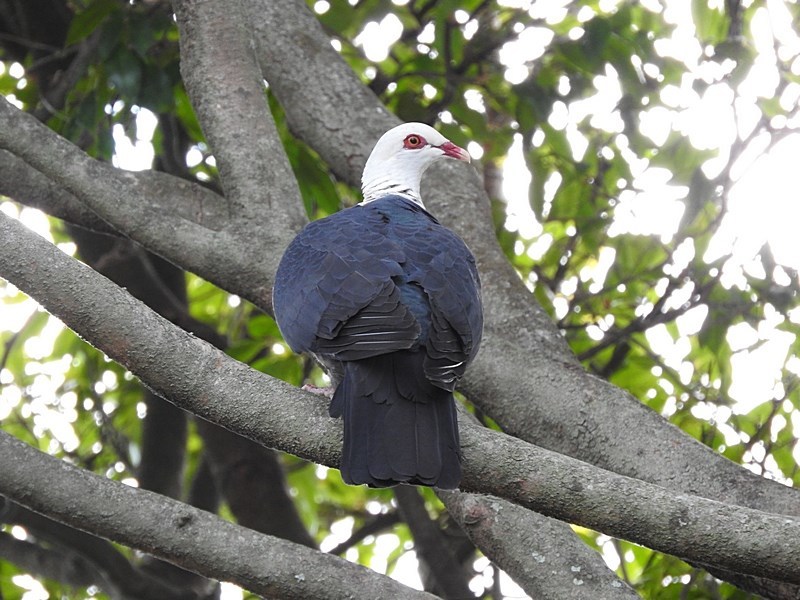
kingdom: Animalia
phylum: Chordata
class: Aves
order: Columbiformes
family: Columbidae
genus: Columba
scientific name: Columba leucomela
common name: White-headed pigeon
